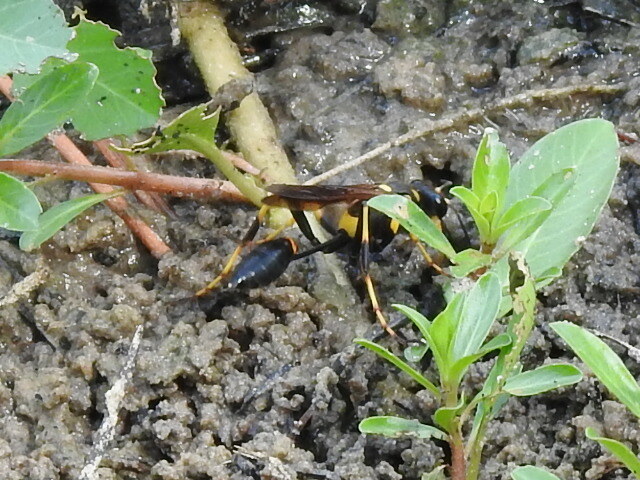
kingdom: Animalia
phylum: Arthropoda
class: Insecta
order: Hymenoptera
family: Sphecidae
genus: Sceliphron
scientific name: Sceliphron caementarium
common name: Mud dauber
